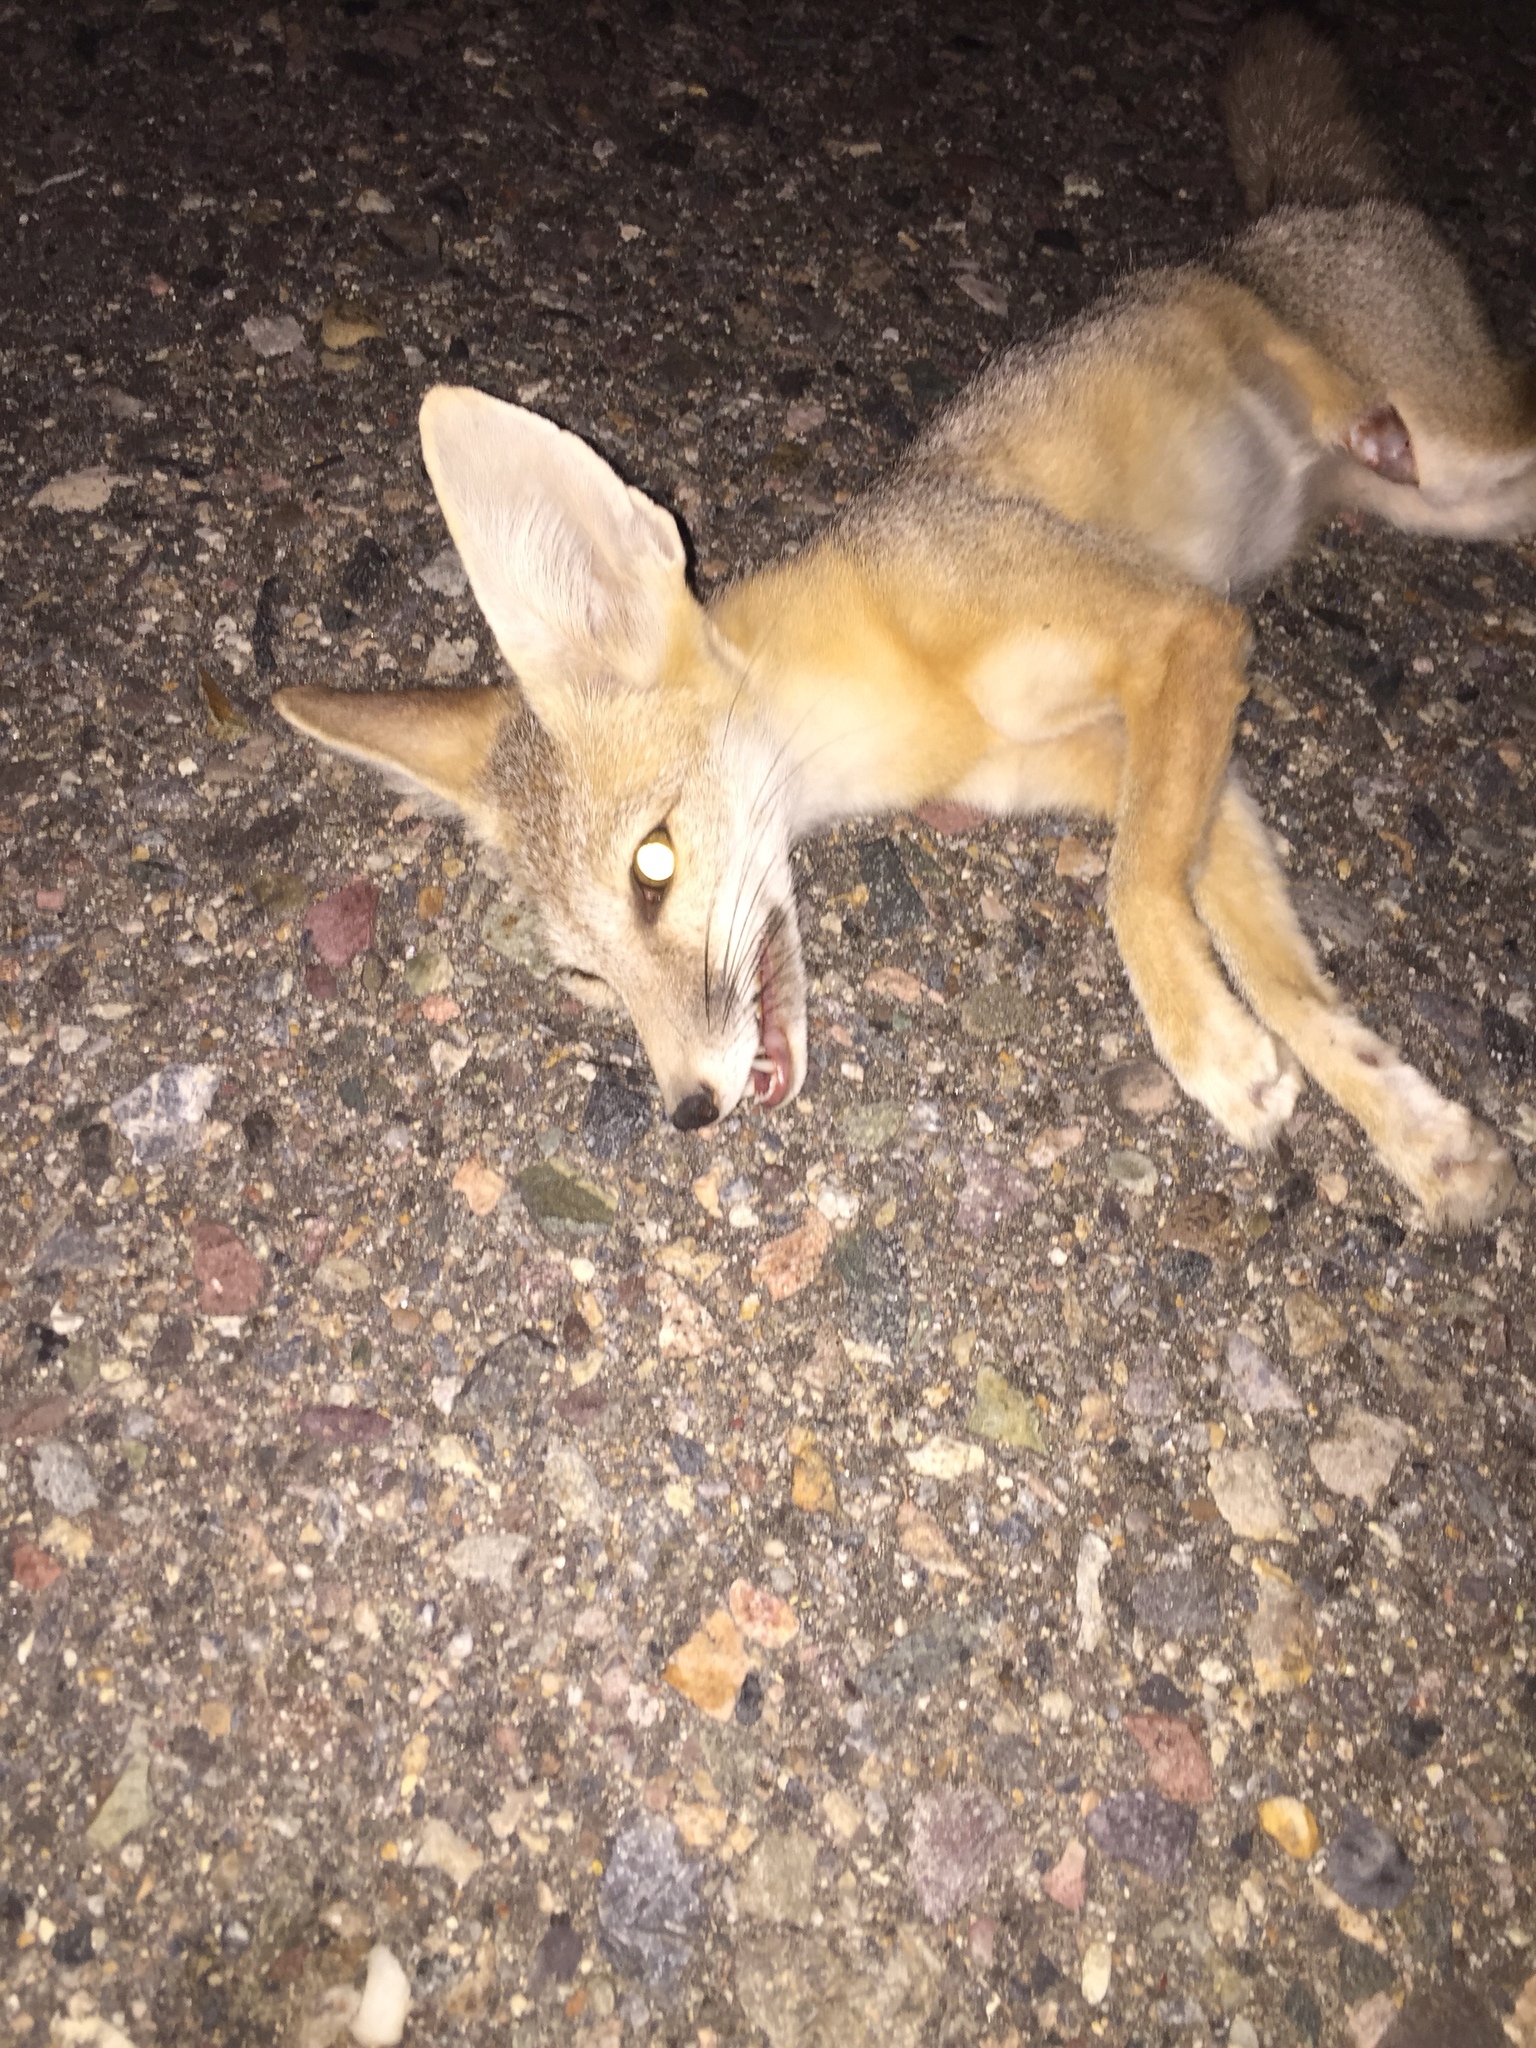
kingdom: Animalia
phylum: Chordata
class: Mammalia
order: Carnivora
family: Canidae
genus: Vulpes
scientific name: Vulpes macrotis
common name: Kit fox
